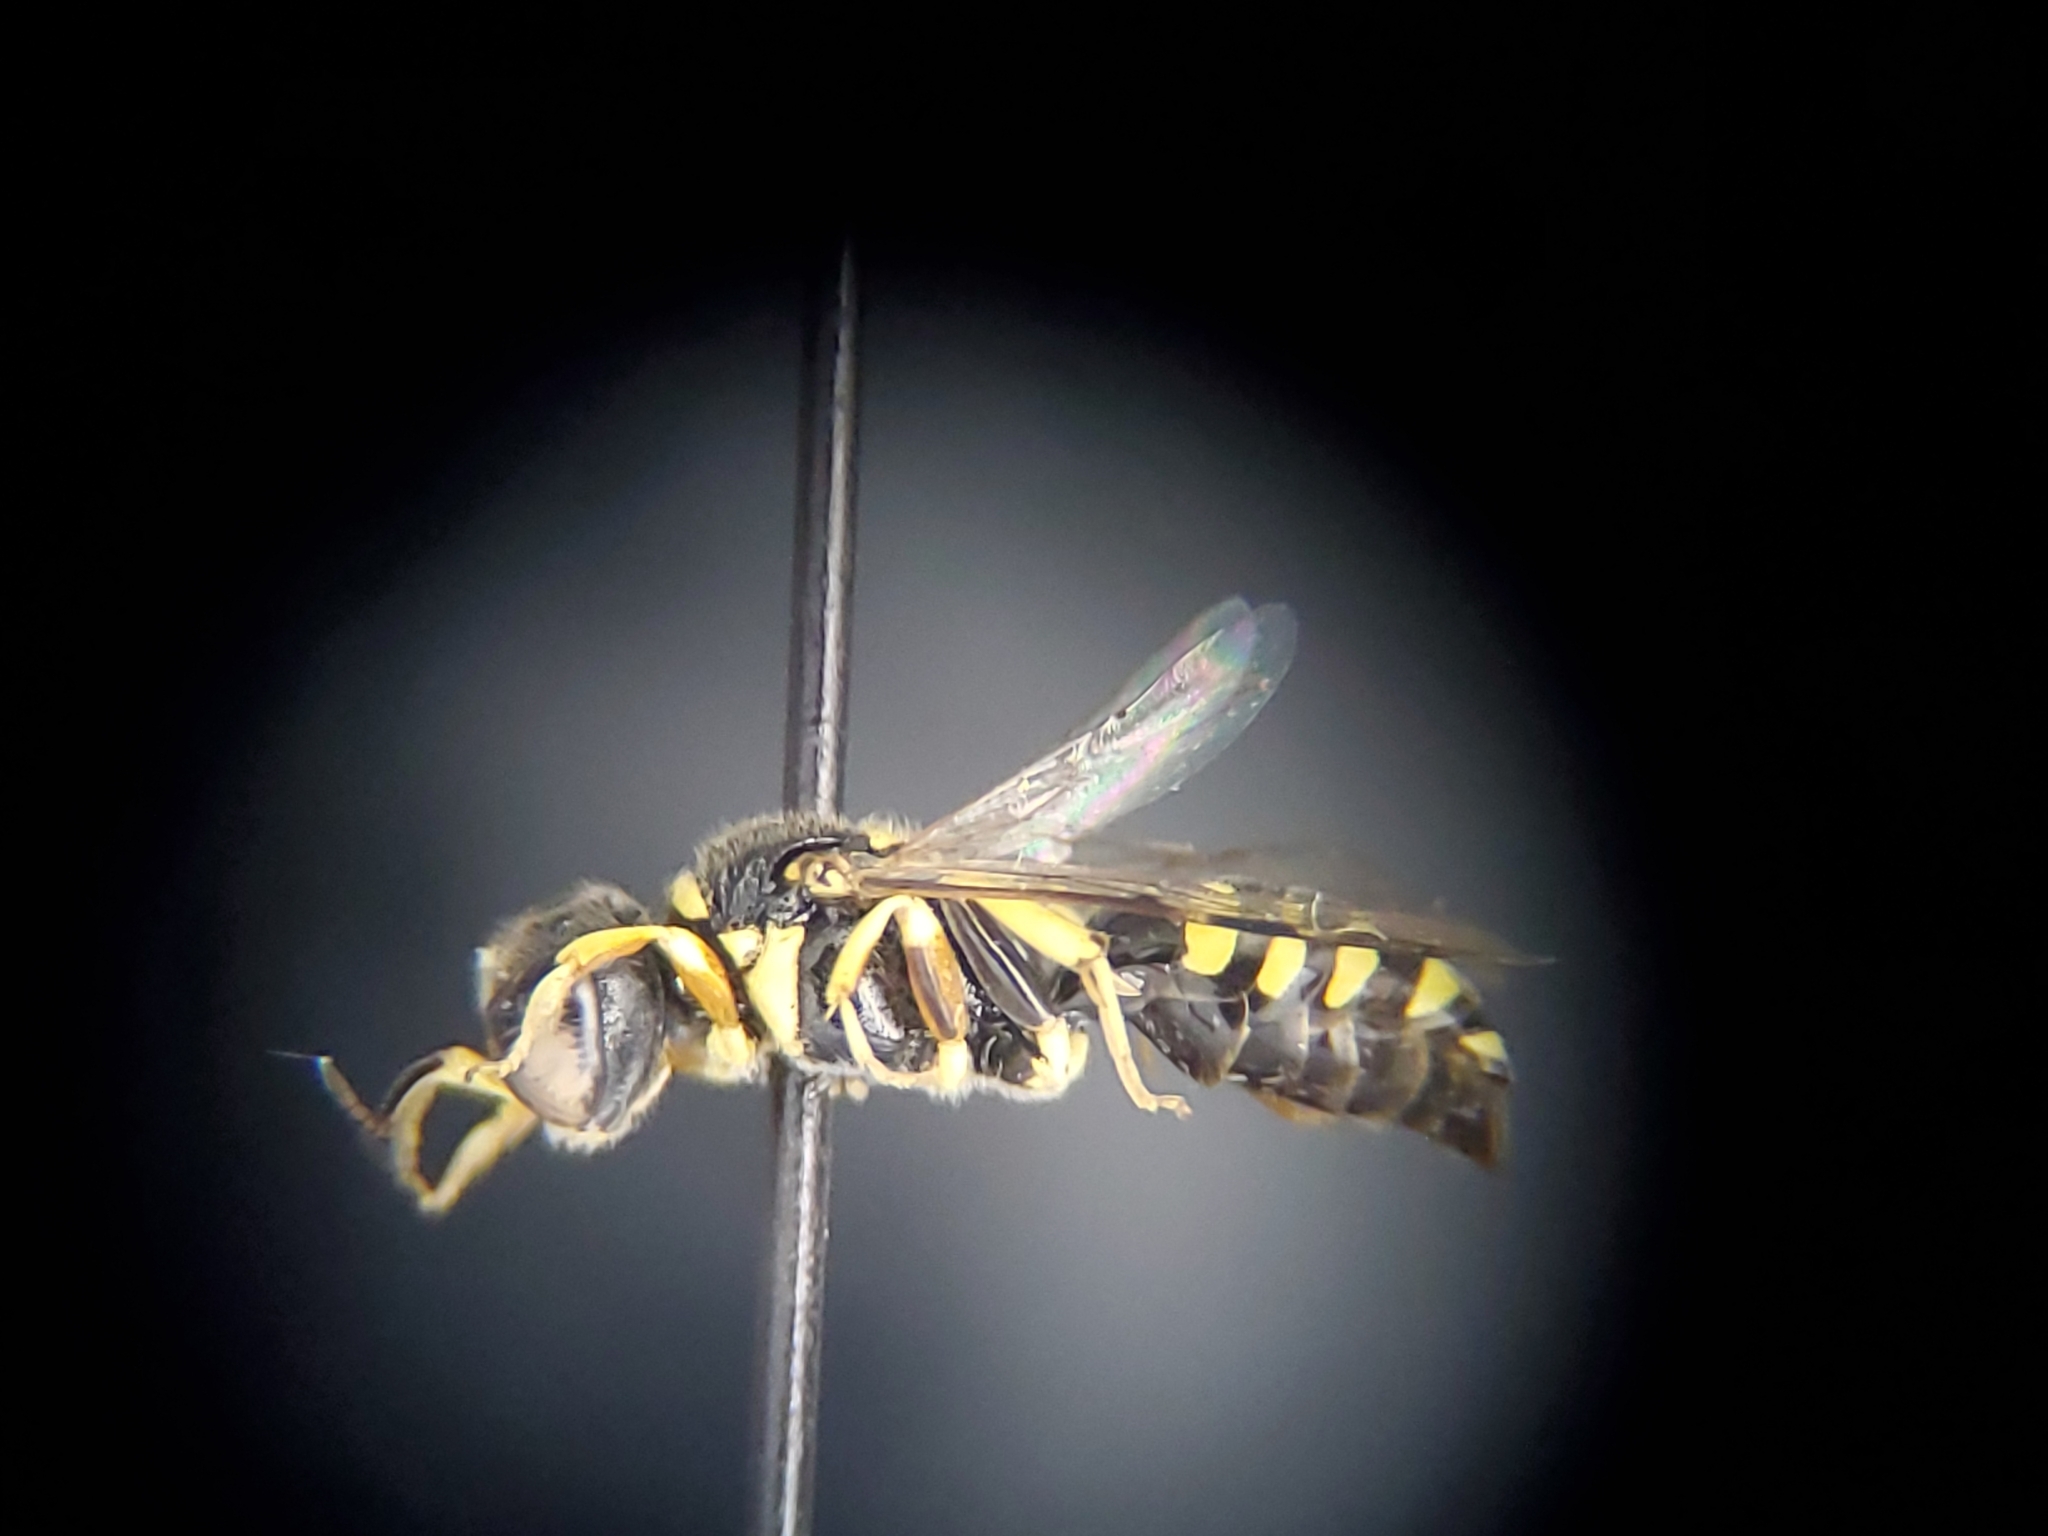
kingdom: Animalia
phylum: Arthropoda
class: Insecta
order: Hymenoptera
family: Crabronidae
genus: Crossocerus
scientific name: Crossocerus nitidiventris
